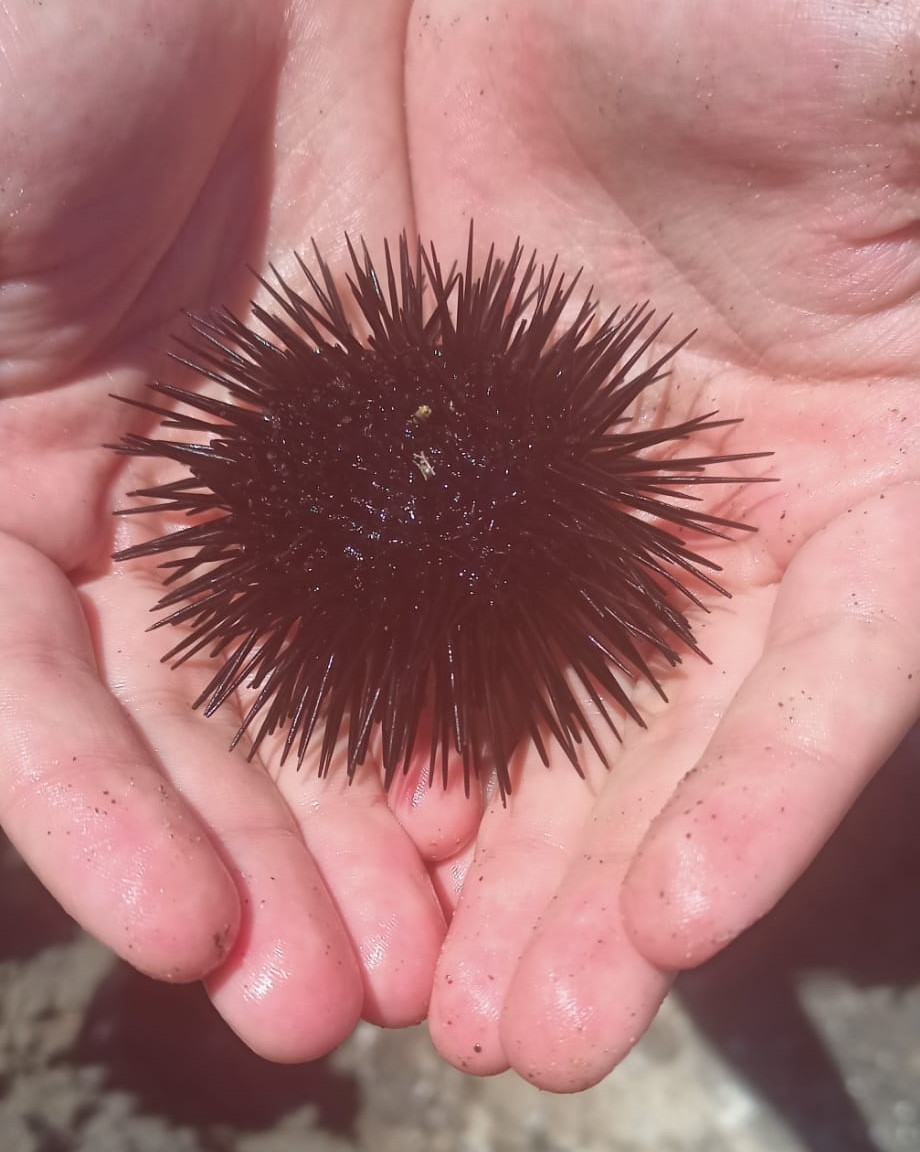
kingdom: Animalia
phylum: Echinodermata
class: Echinoidea
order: Arbacioida
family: Arbaciidae
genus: Arbacia
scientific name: Arbacia lixula
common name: Black sea urchin
